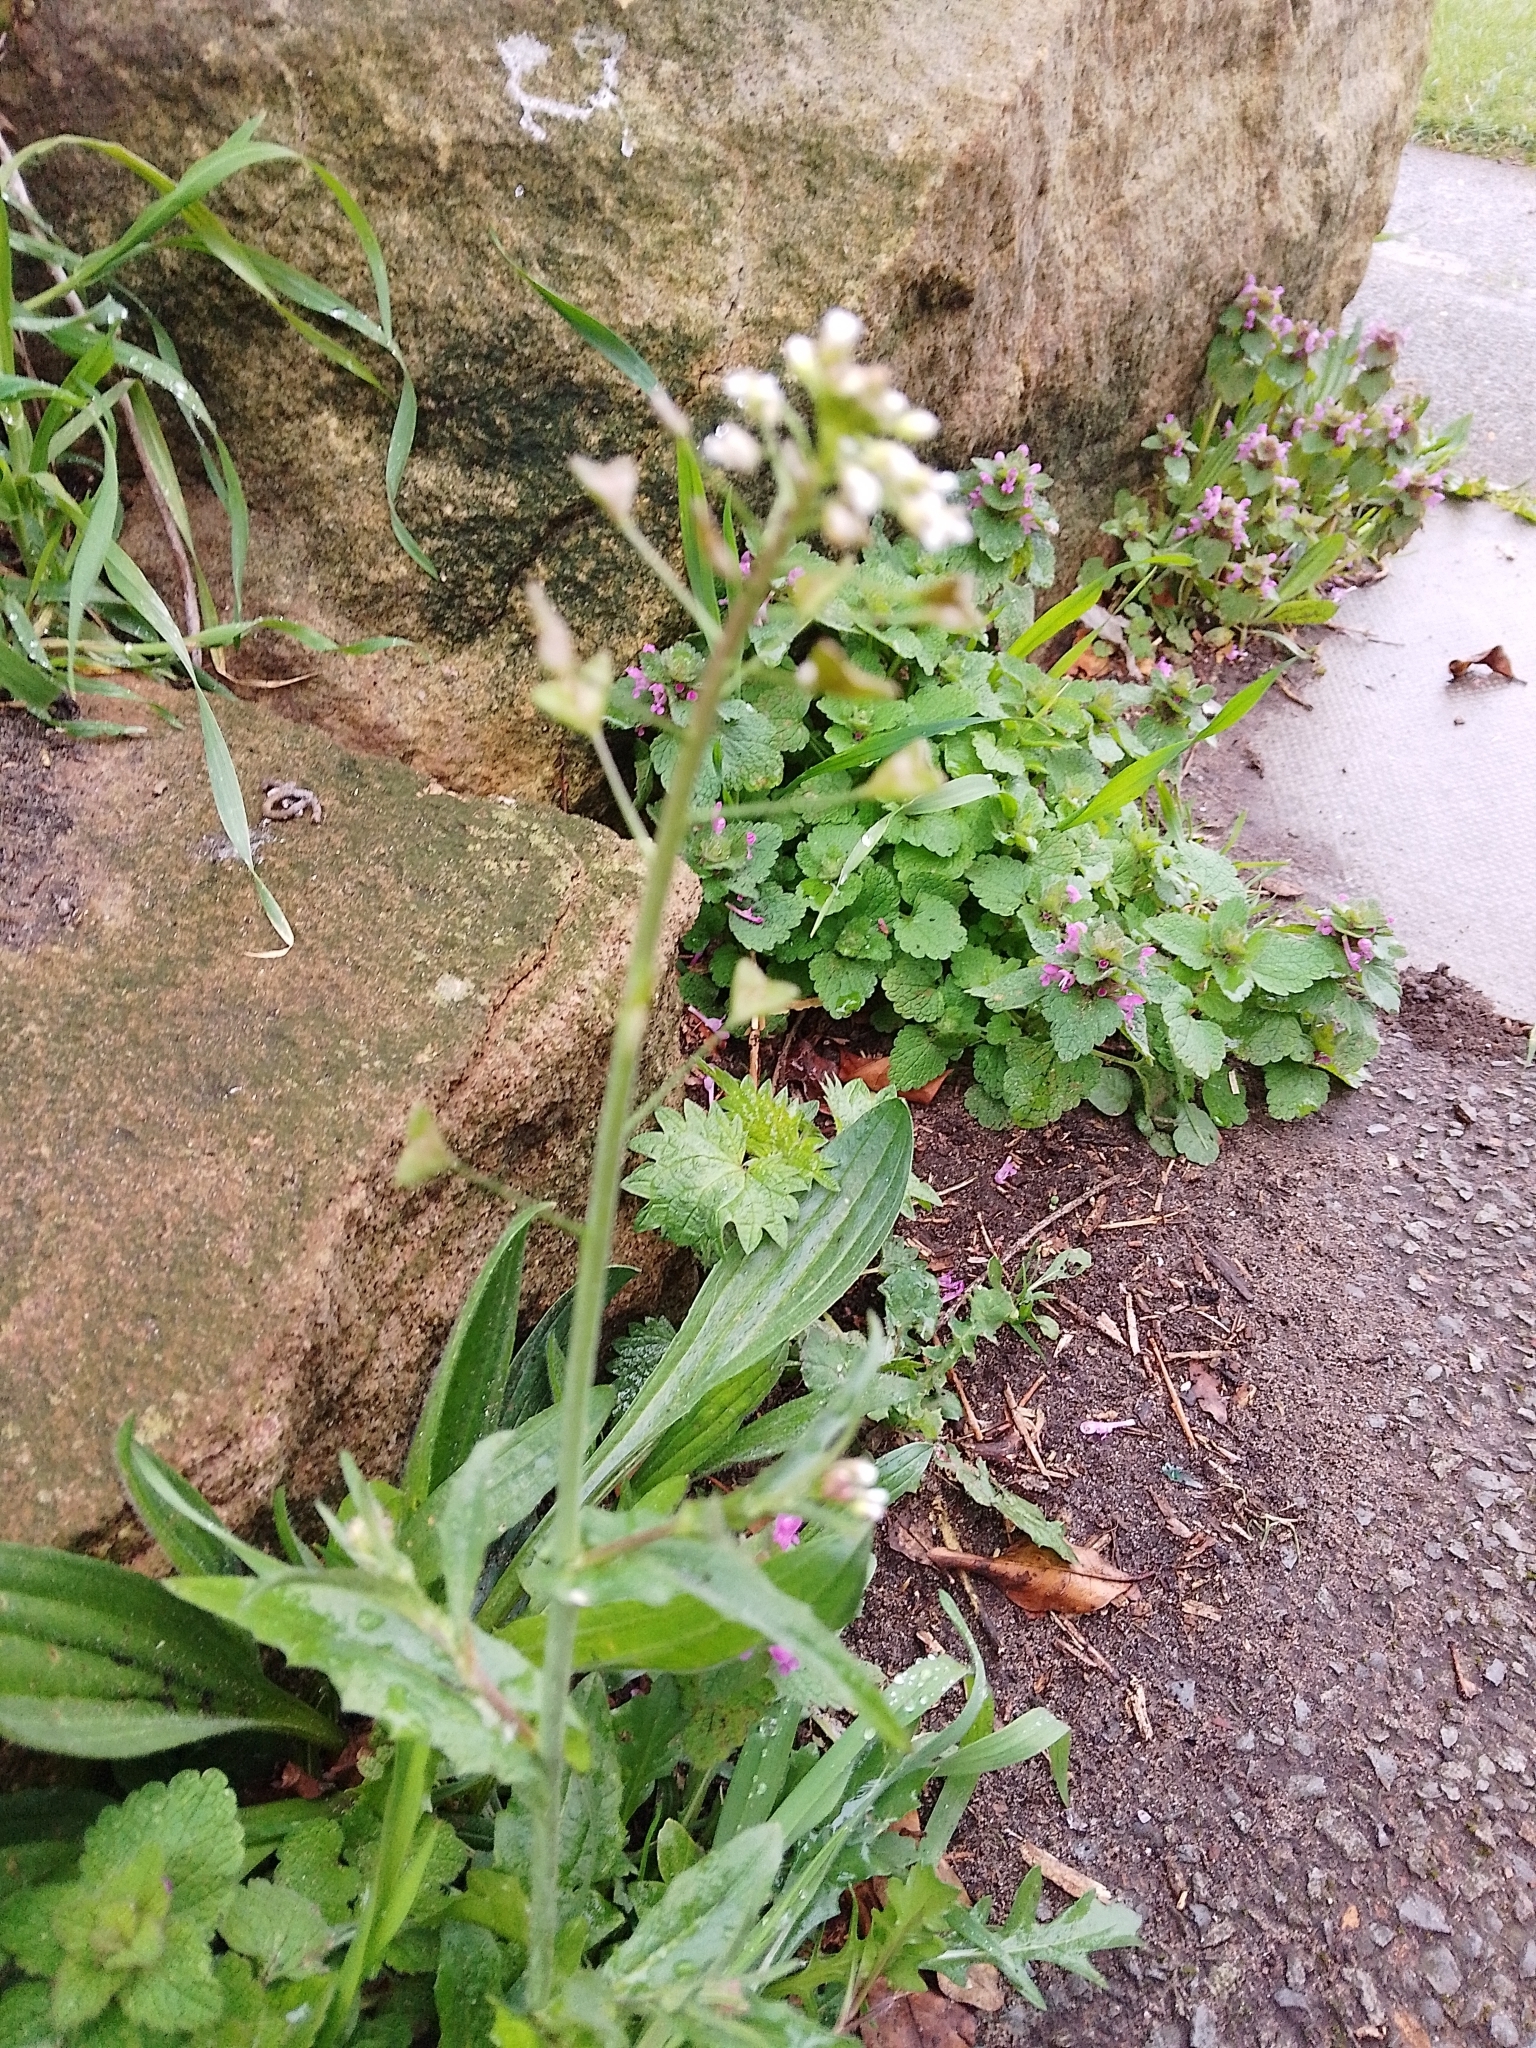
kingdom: Plantae
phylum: Tracheophyta
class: Magnoliopsida
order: Brassicales
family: Brassicaceae
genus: Capsella
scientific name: Capsella bursa-pastoris
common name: Shepherd's purse
